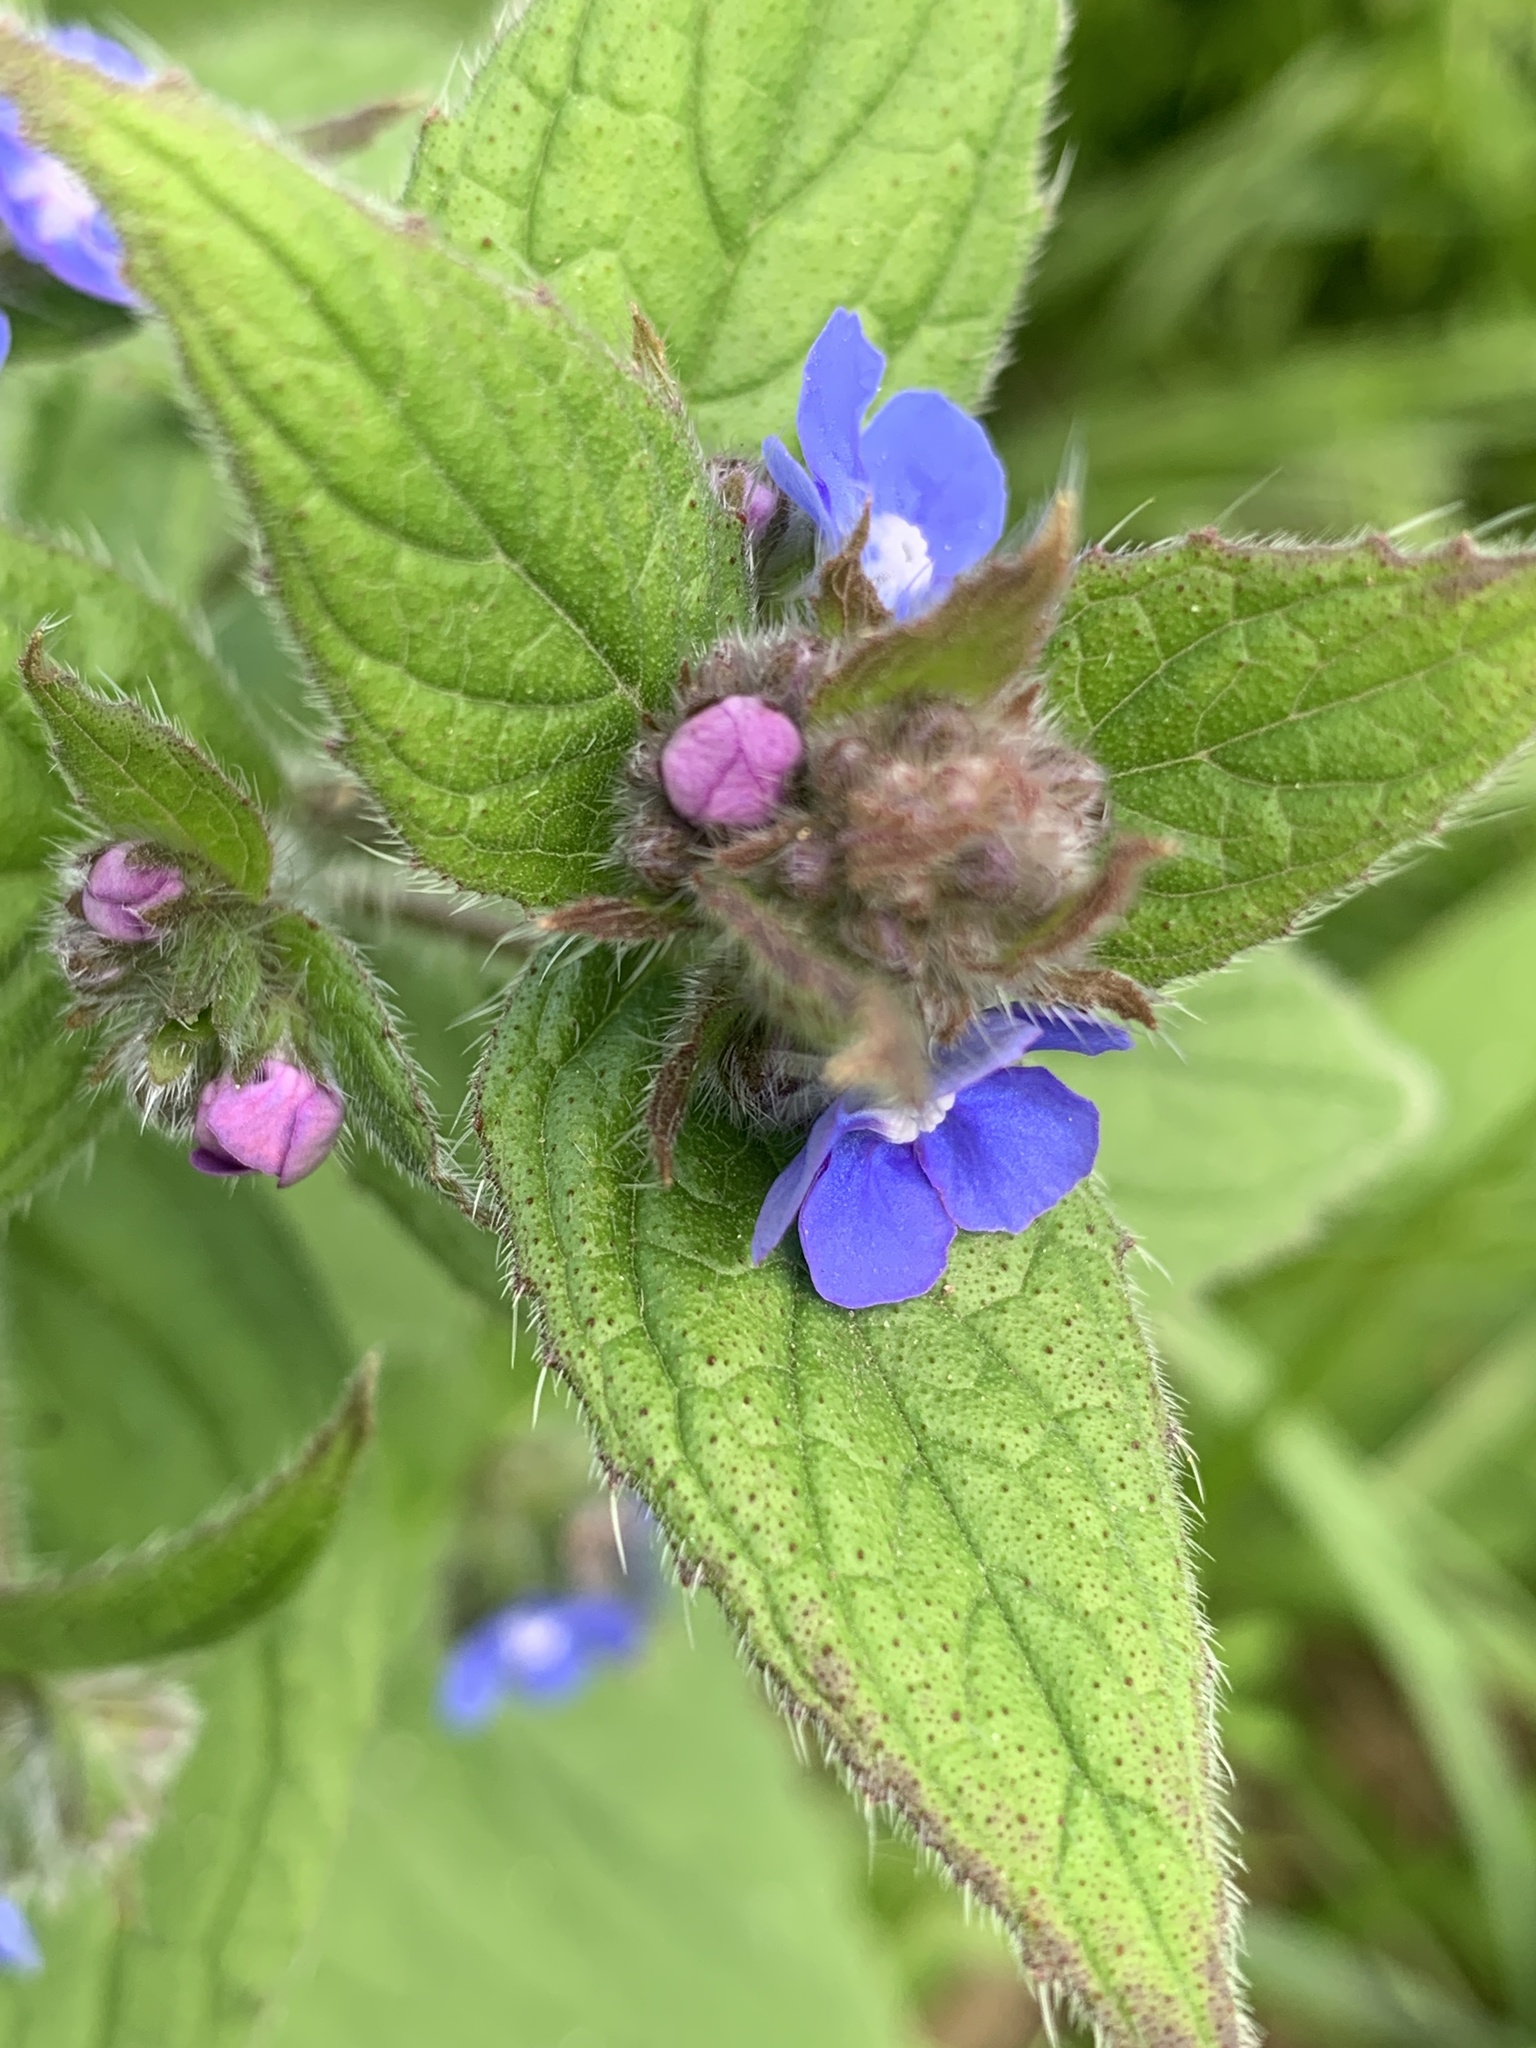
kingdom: Plantae
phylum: Tracheophyta
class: Magnoliopsida
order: Boraginales
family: Boraginaceae
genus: Pentaglottis
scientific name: Pentaglottis sempervirens
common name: Green alkanet
